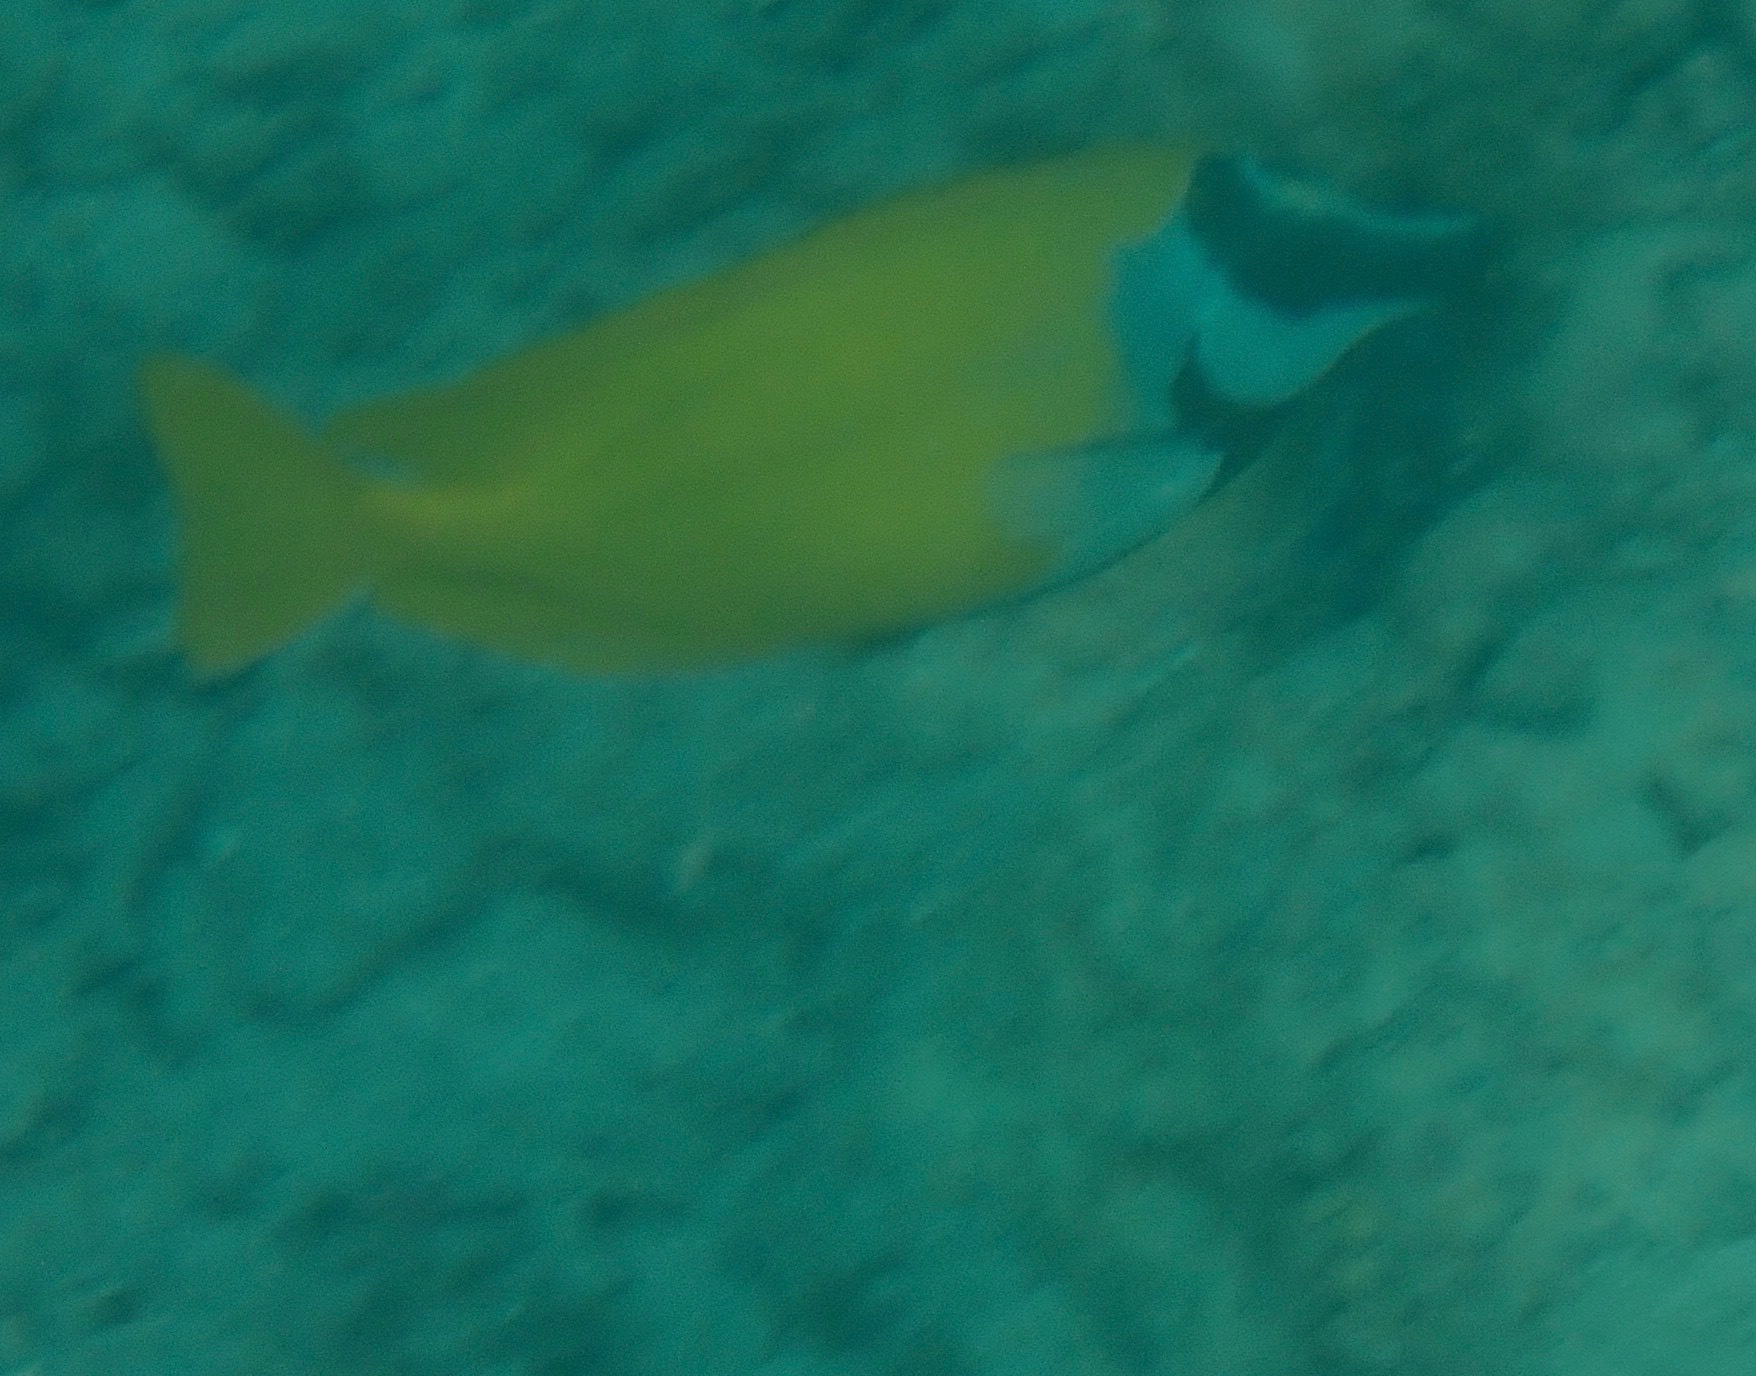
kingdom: Animalia
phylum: Chordata
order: Perciformes
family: Siganidae
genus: Siganus
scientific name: Siganus vulpinus
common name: Foxface
